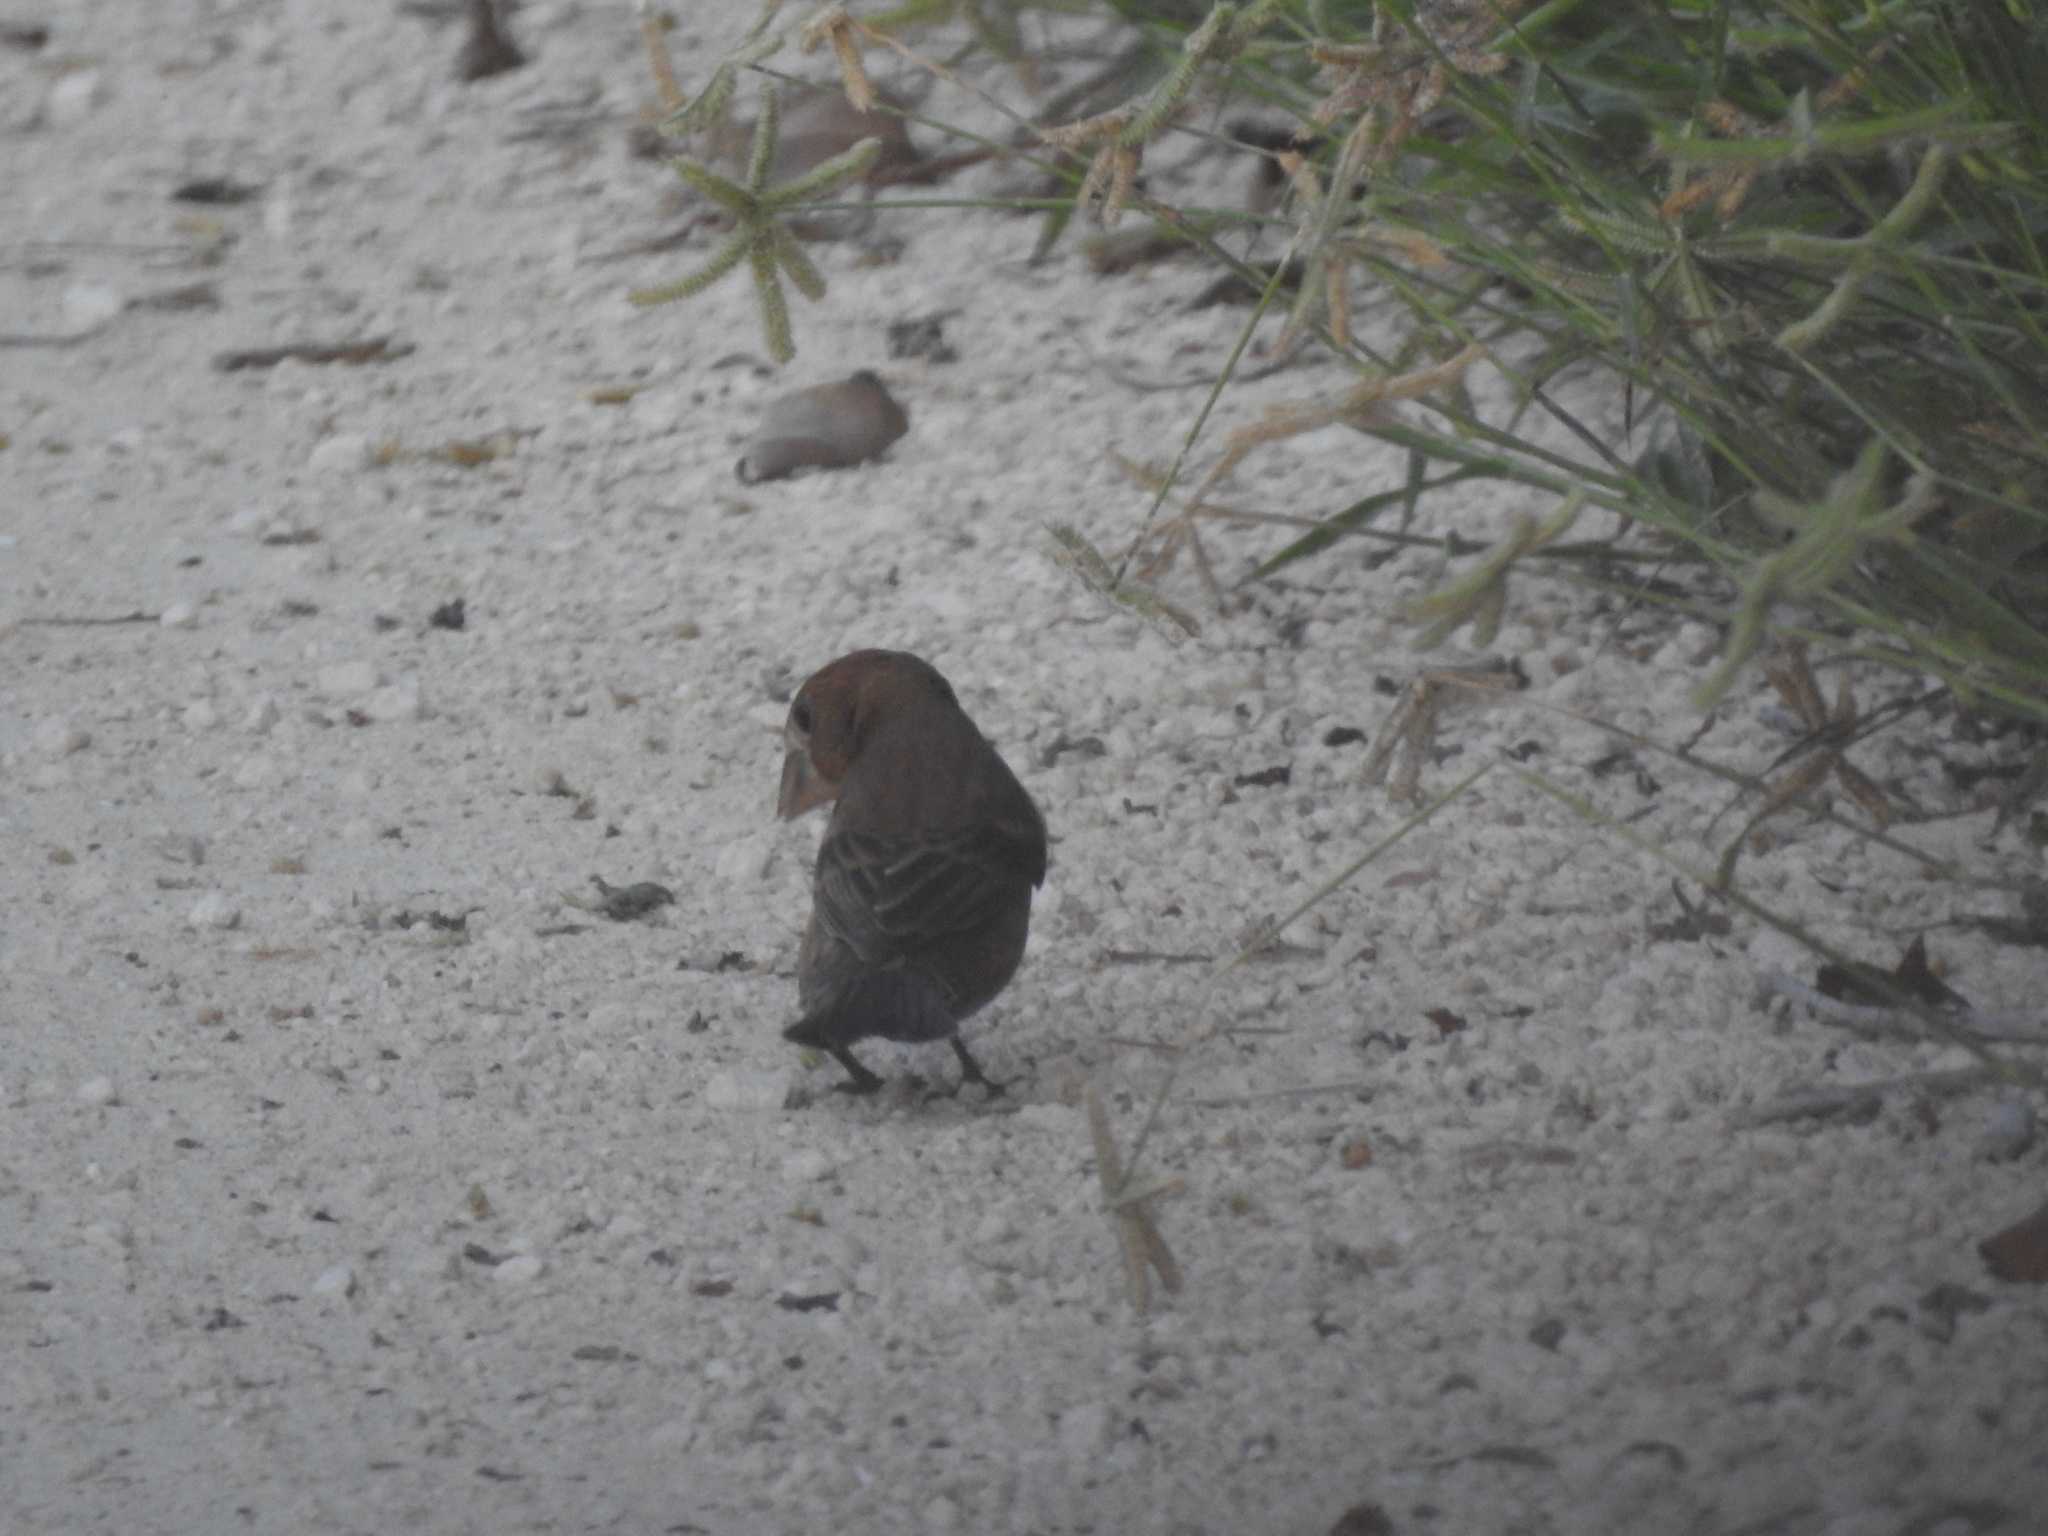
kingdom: Animalia
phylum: Chordata
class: Aves
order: Passeriformes
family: Cardinalidae
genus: Passerina
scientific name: Passerina caerulea
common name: Blue grosbeak
